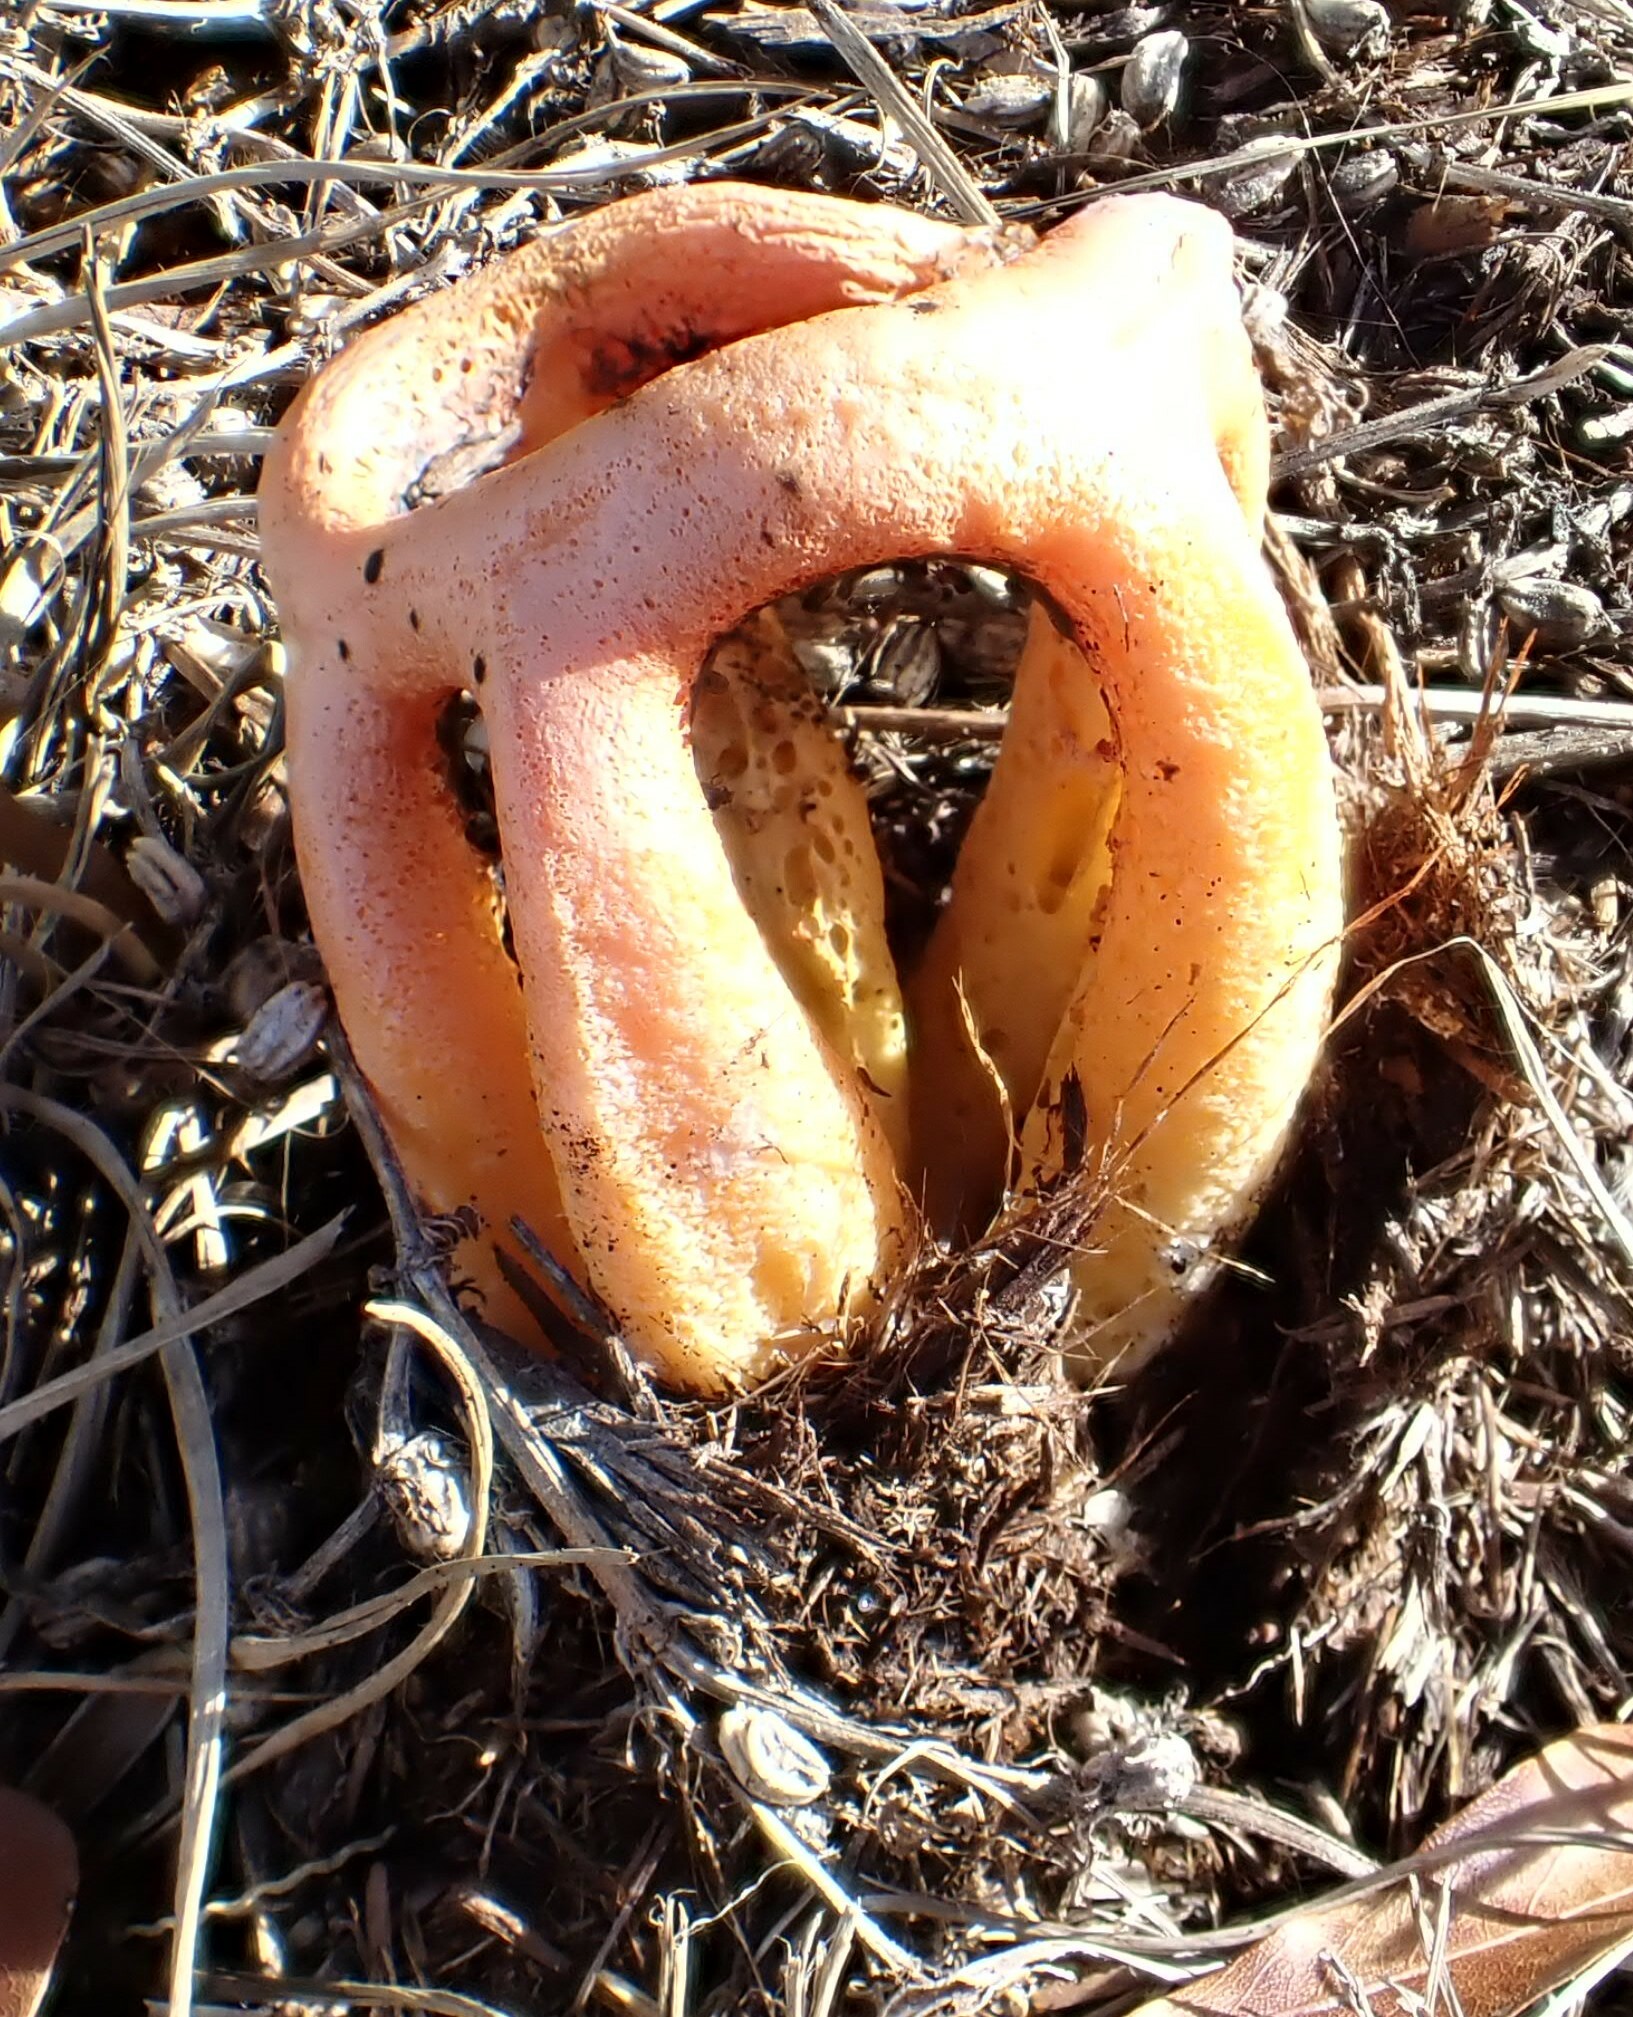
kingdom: Fungi
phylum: Basidiomycota
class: Agaricomycetes
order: Phallales
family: Phallaceae
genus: Clathrus
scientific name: Clathrus columnatus
